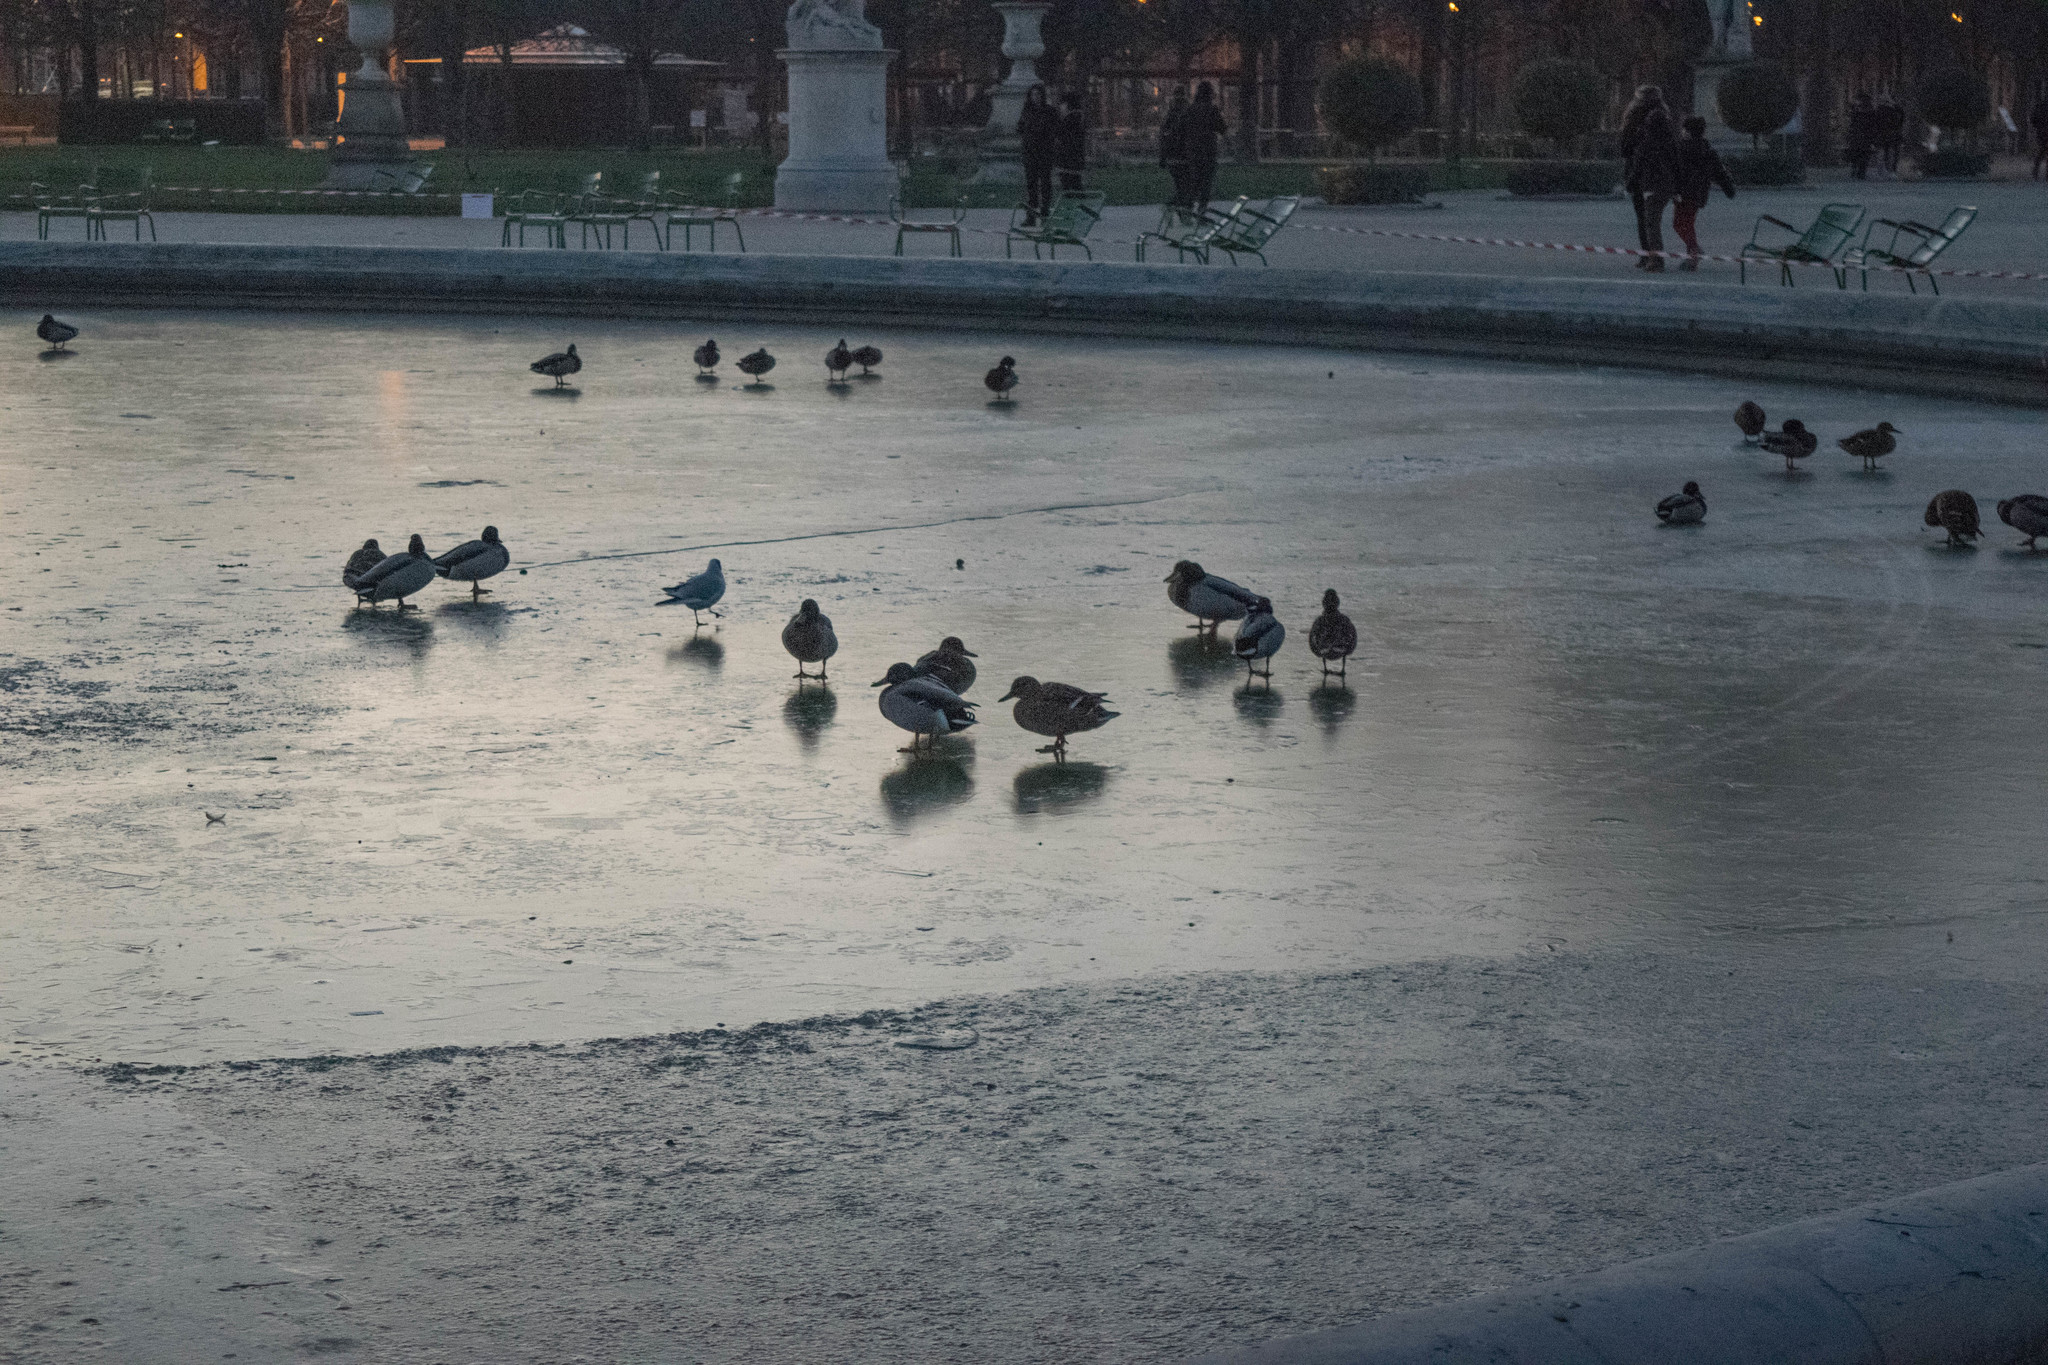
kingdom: Animalia
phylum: Chordata
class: Aves
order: Anseriformes
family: Anatidae
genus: Anas
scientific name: Anas platyrhynchos
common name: Mallard
